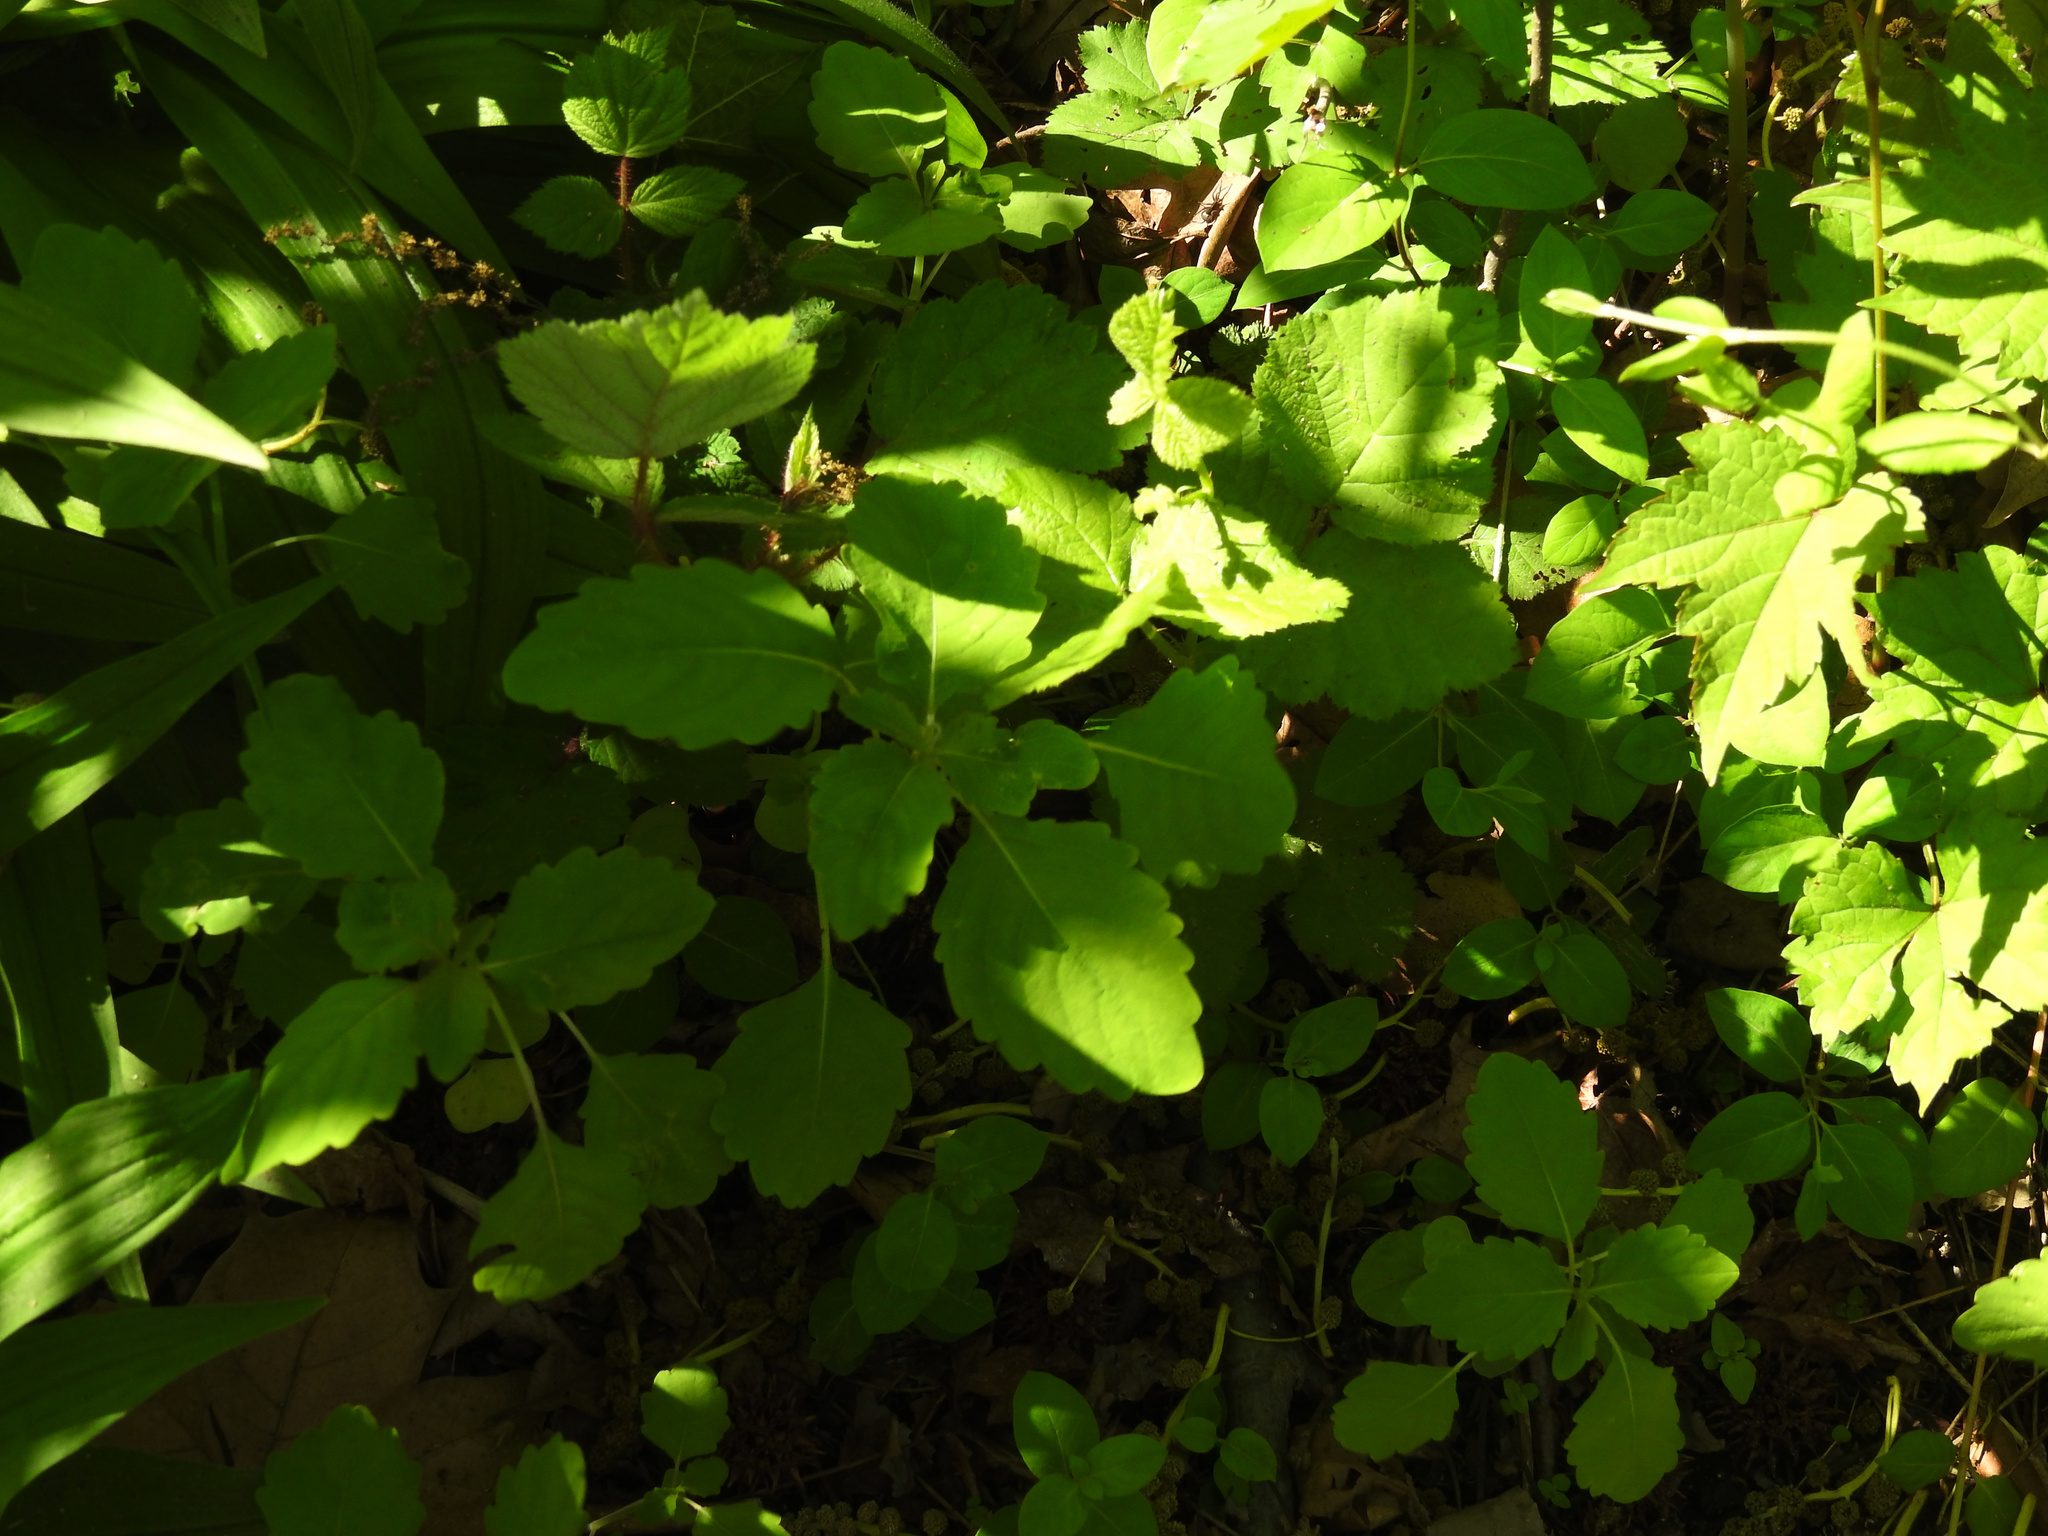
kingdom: Plantae
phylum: Tracheophyta
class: Magnoliopsida
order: Ericales
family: Balsaminaceae
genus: Impatiens
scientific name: Impatiens capensis
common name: Orange balsam
